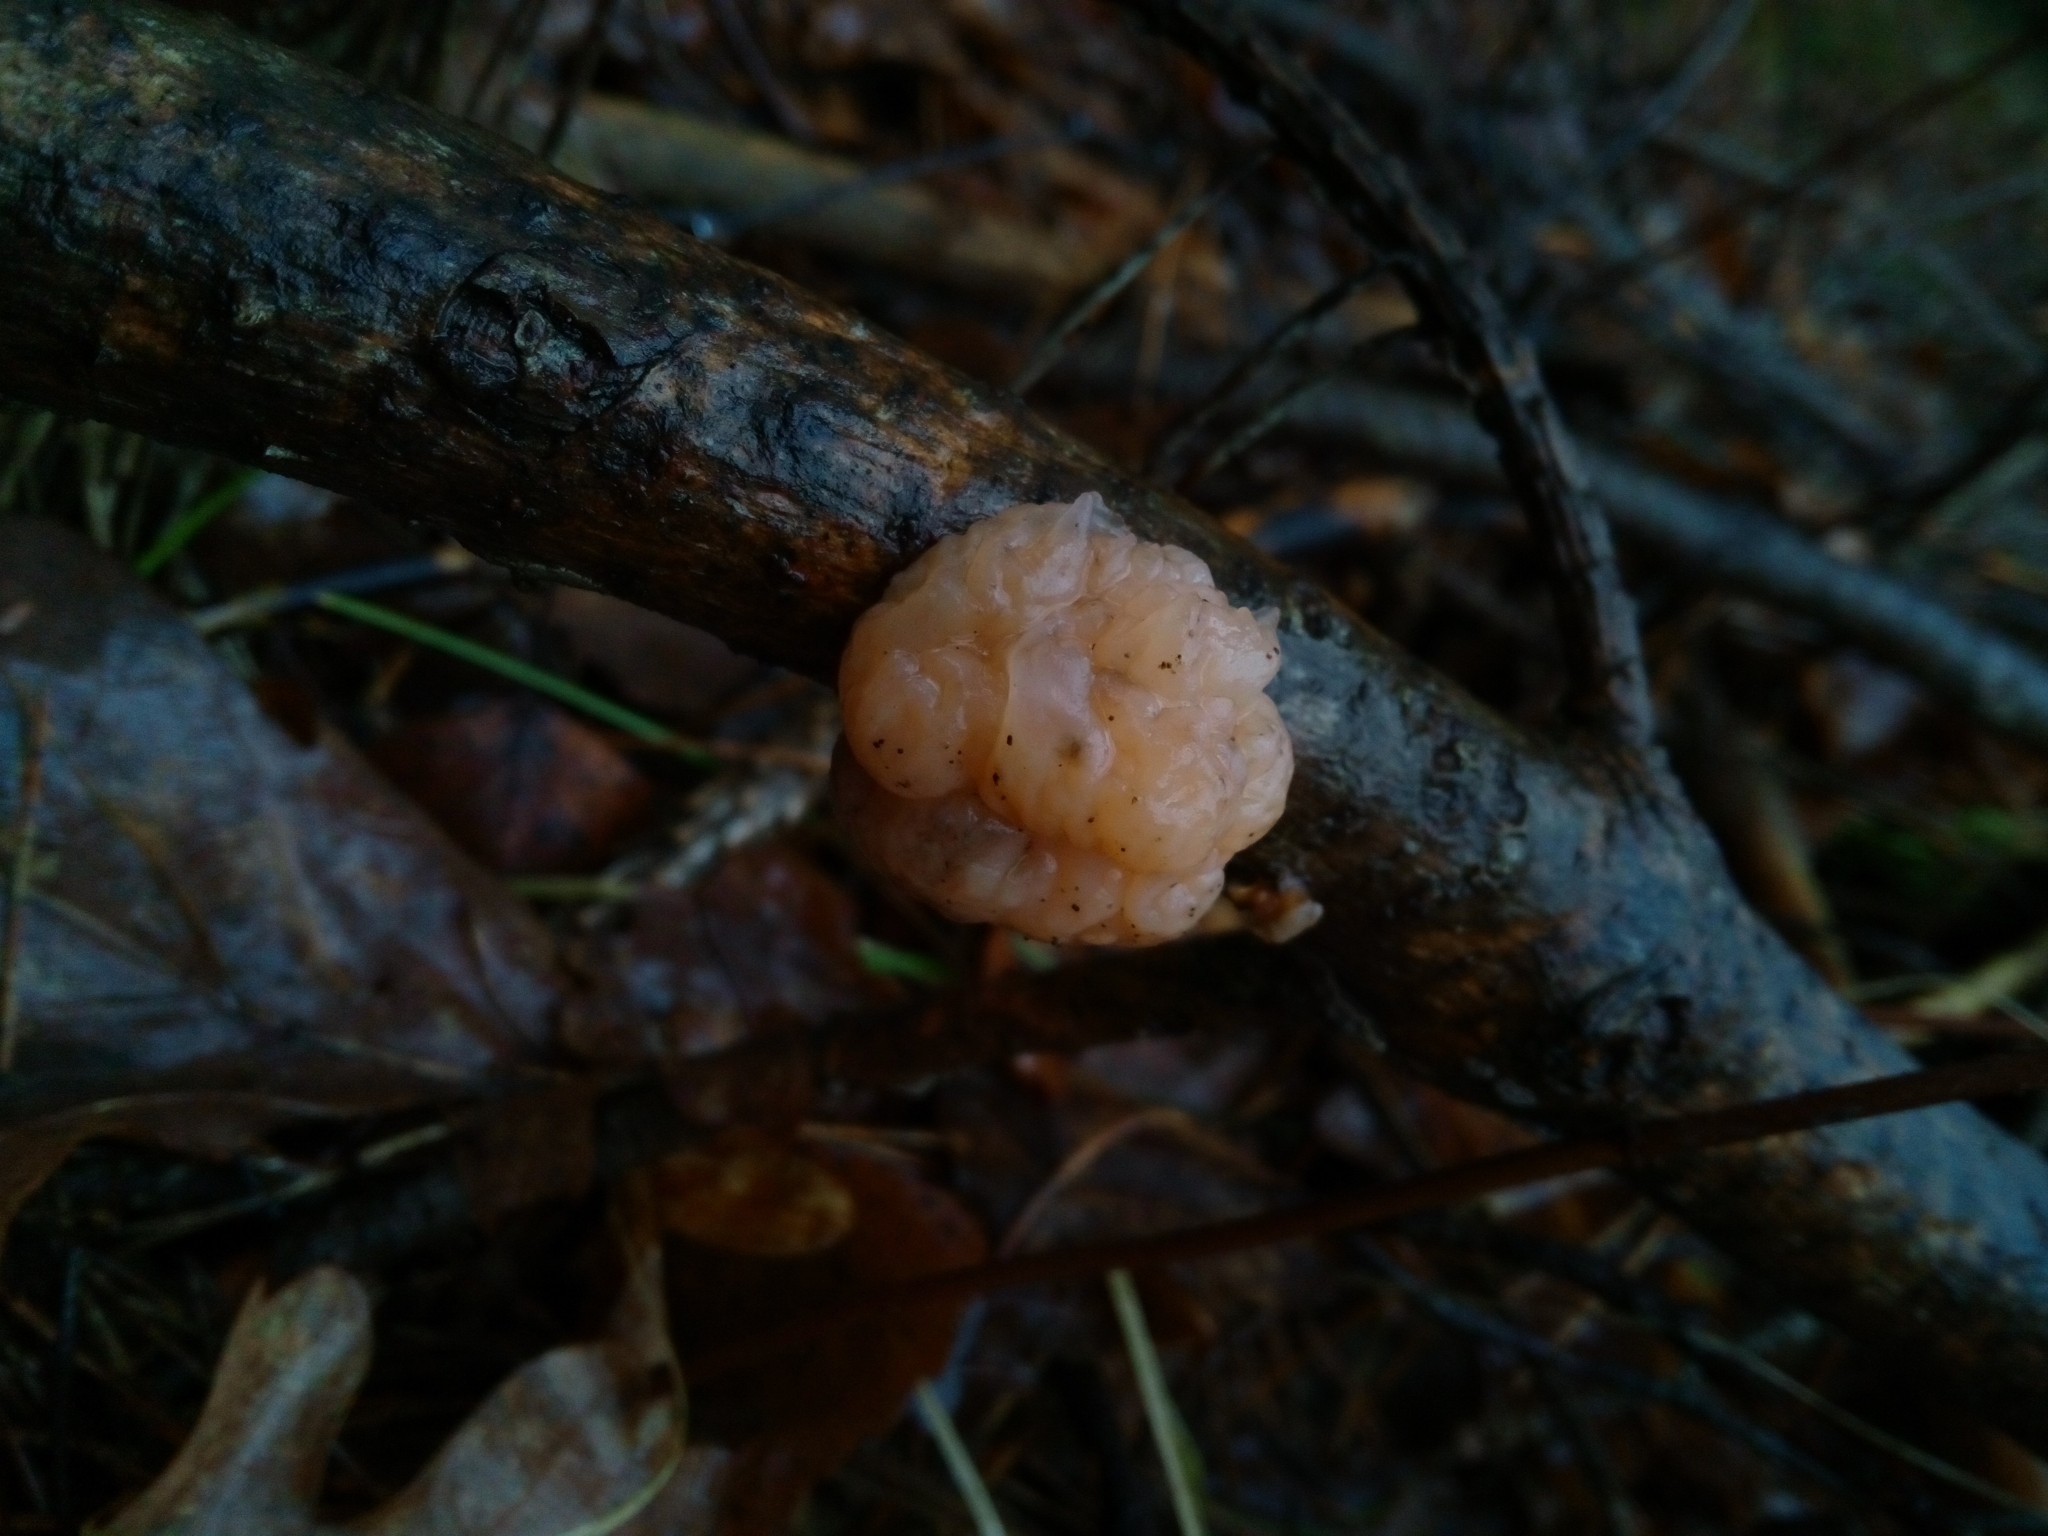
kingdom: Fungi
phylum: Basidiomycota
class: Tremellomycetes
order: Tremellales
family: Naemateliaceae
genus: Naematelia
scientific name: Naematelia encephala
